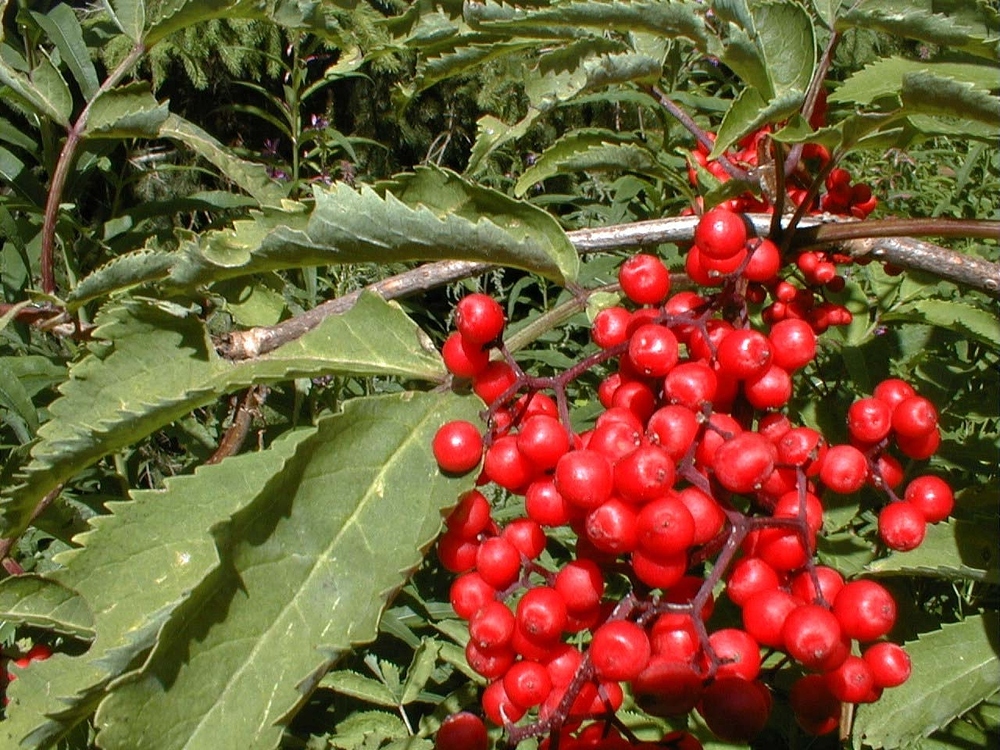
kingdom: Plantae
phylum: Tracheophyta
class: Magnoliopsida
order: Dipsacales
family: Viburnaceae
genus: Sambucus
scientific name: Sambucus racemosa
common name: Red-berried elder
